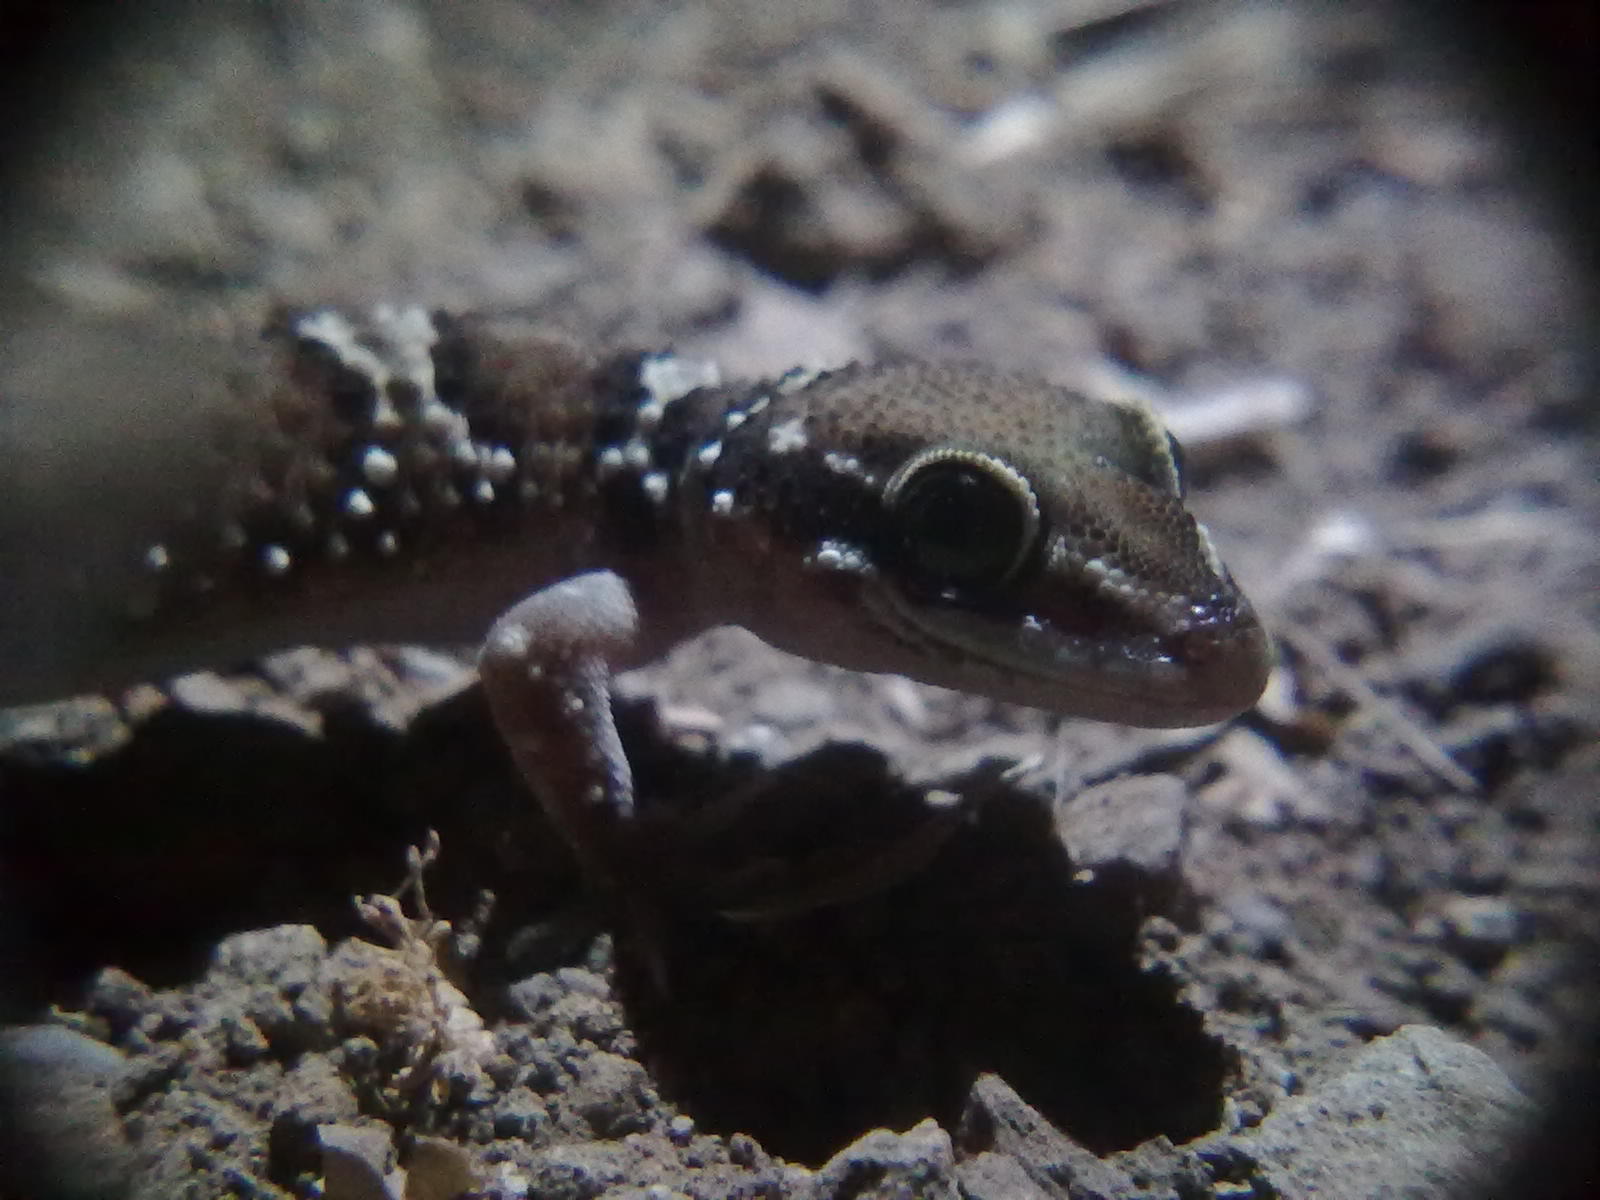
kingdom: Animalia
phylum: Chordata
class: Squamata
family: Gekkonidae
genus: Hemidactylus
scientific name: Hemidactylus triedrus
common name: Blotched house gecko
